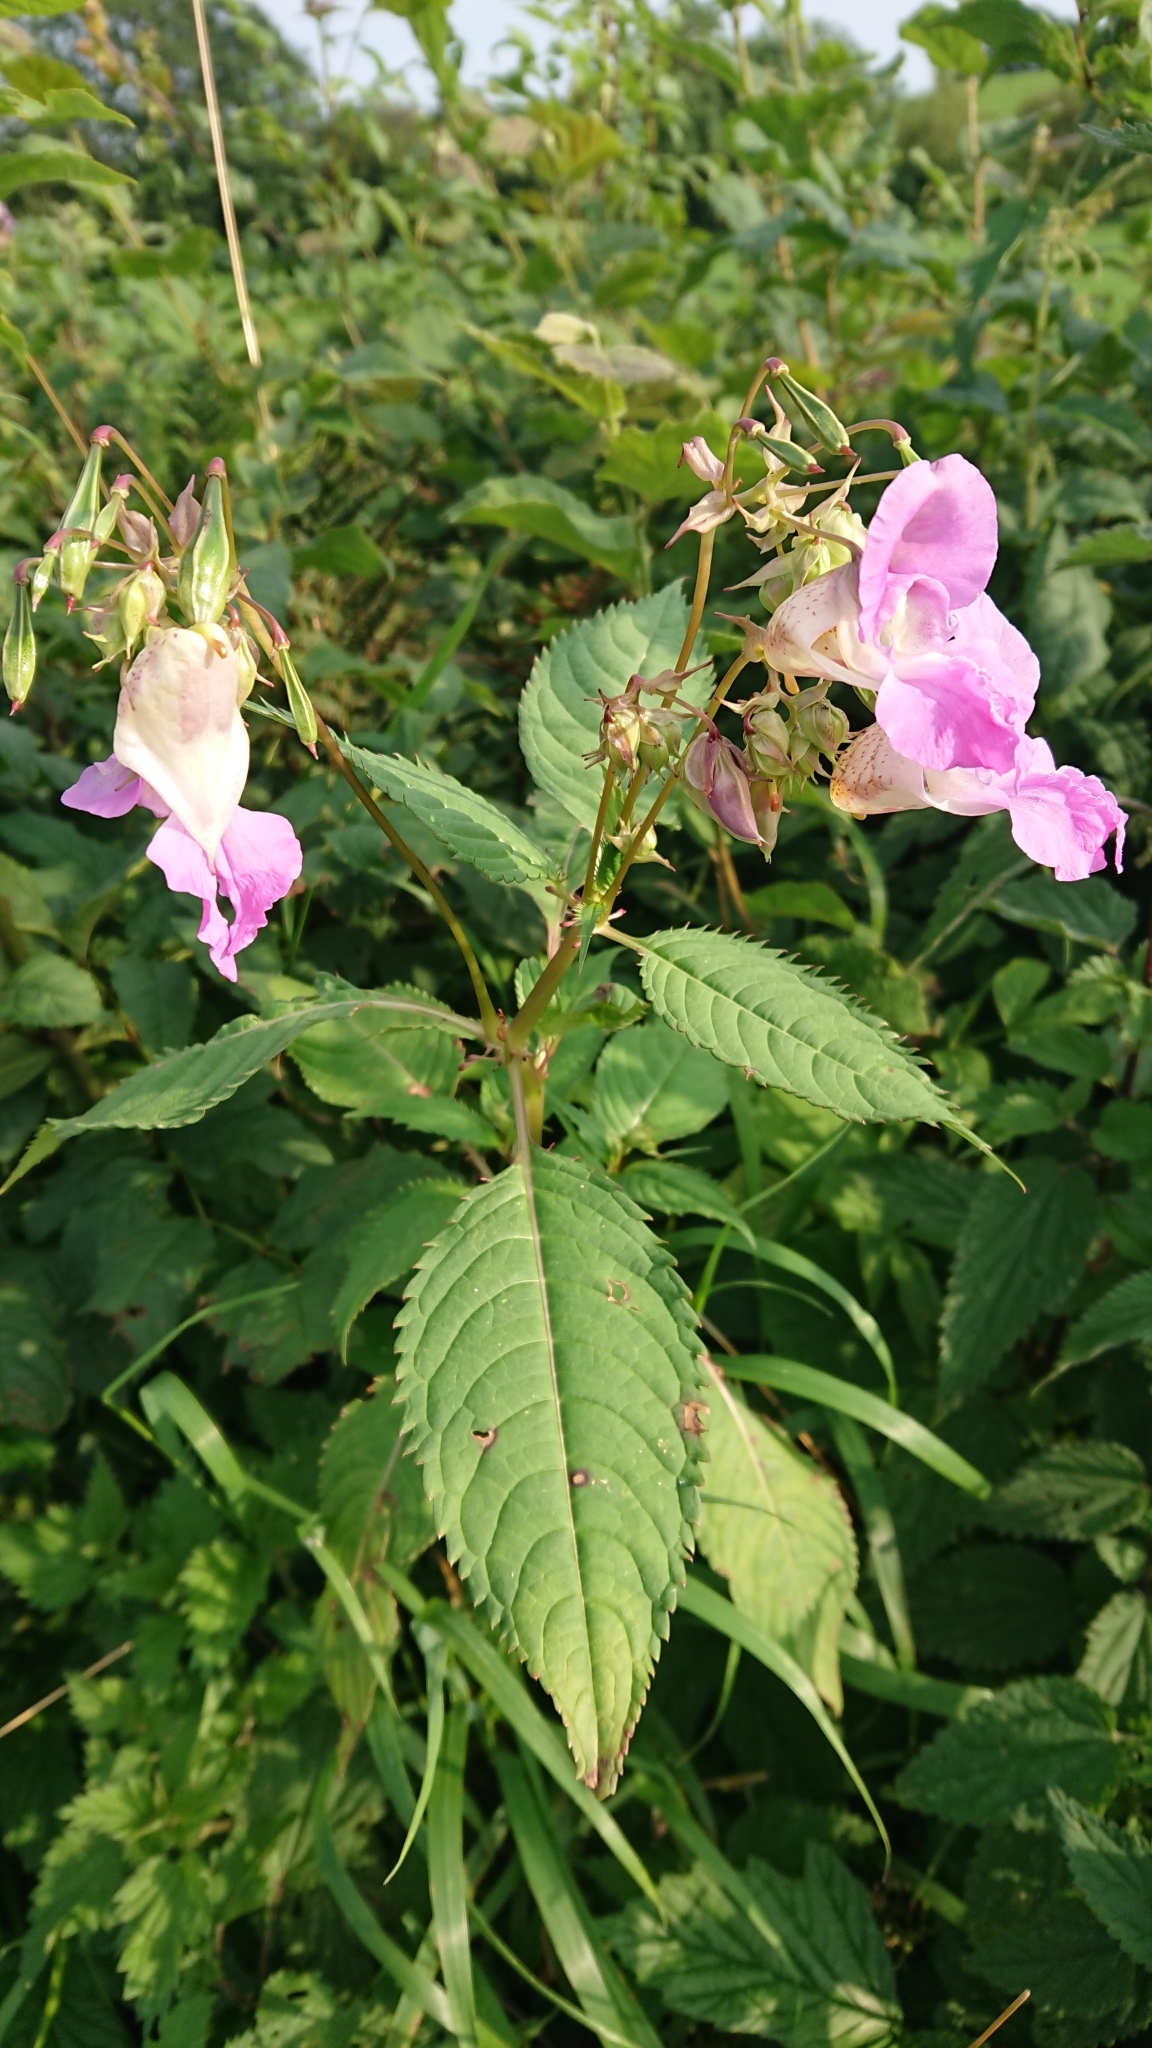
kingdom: Plantae
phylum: Tracheophyta
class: Magnoliopsida
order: Ericales
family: Balsaminaceae
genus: Impatiens
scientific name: Impatiens glandulifera
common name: Himalayan balsam
